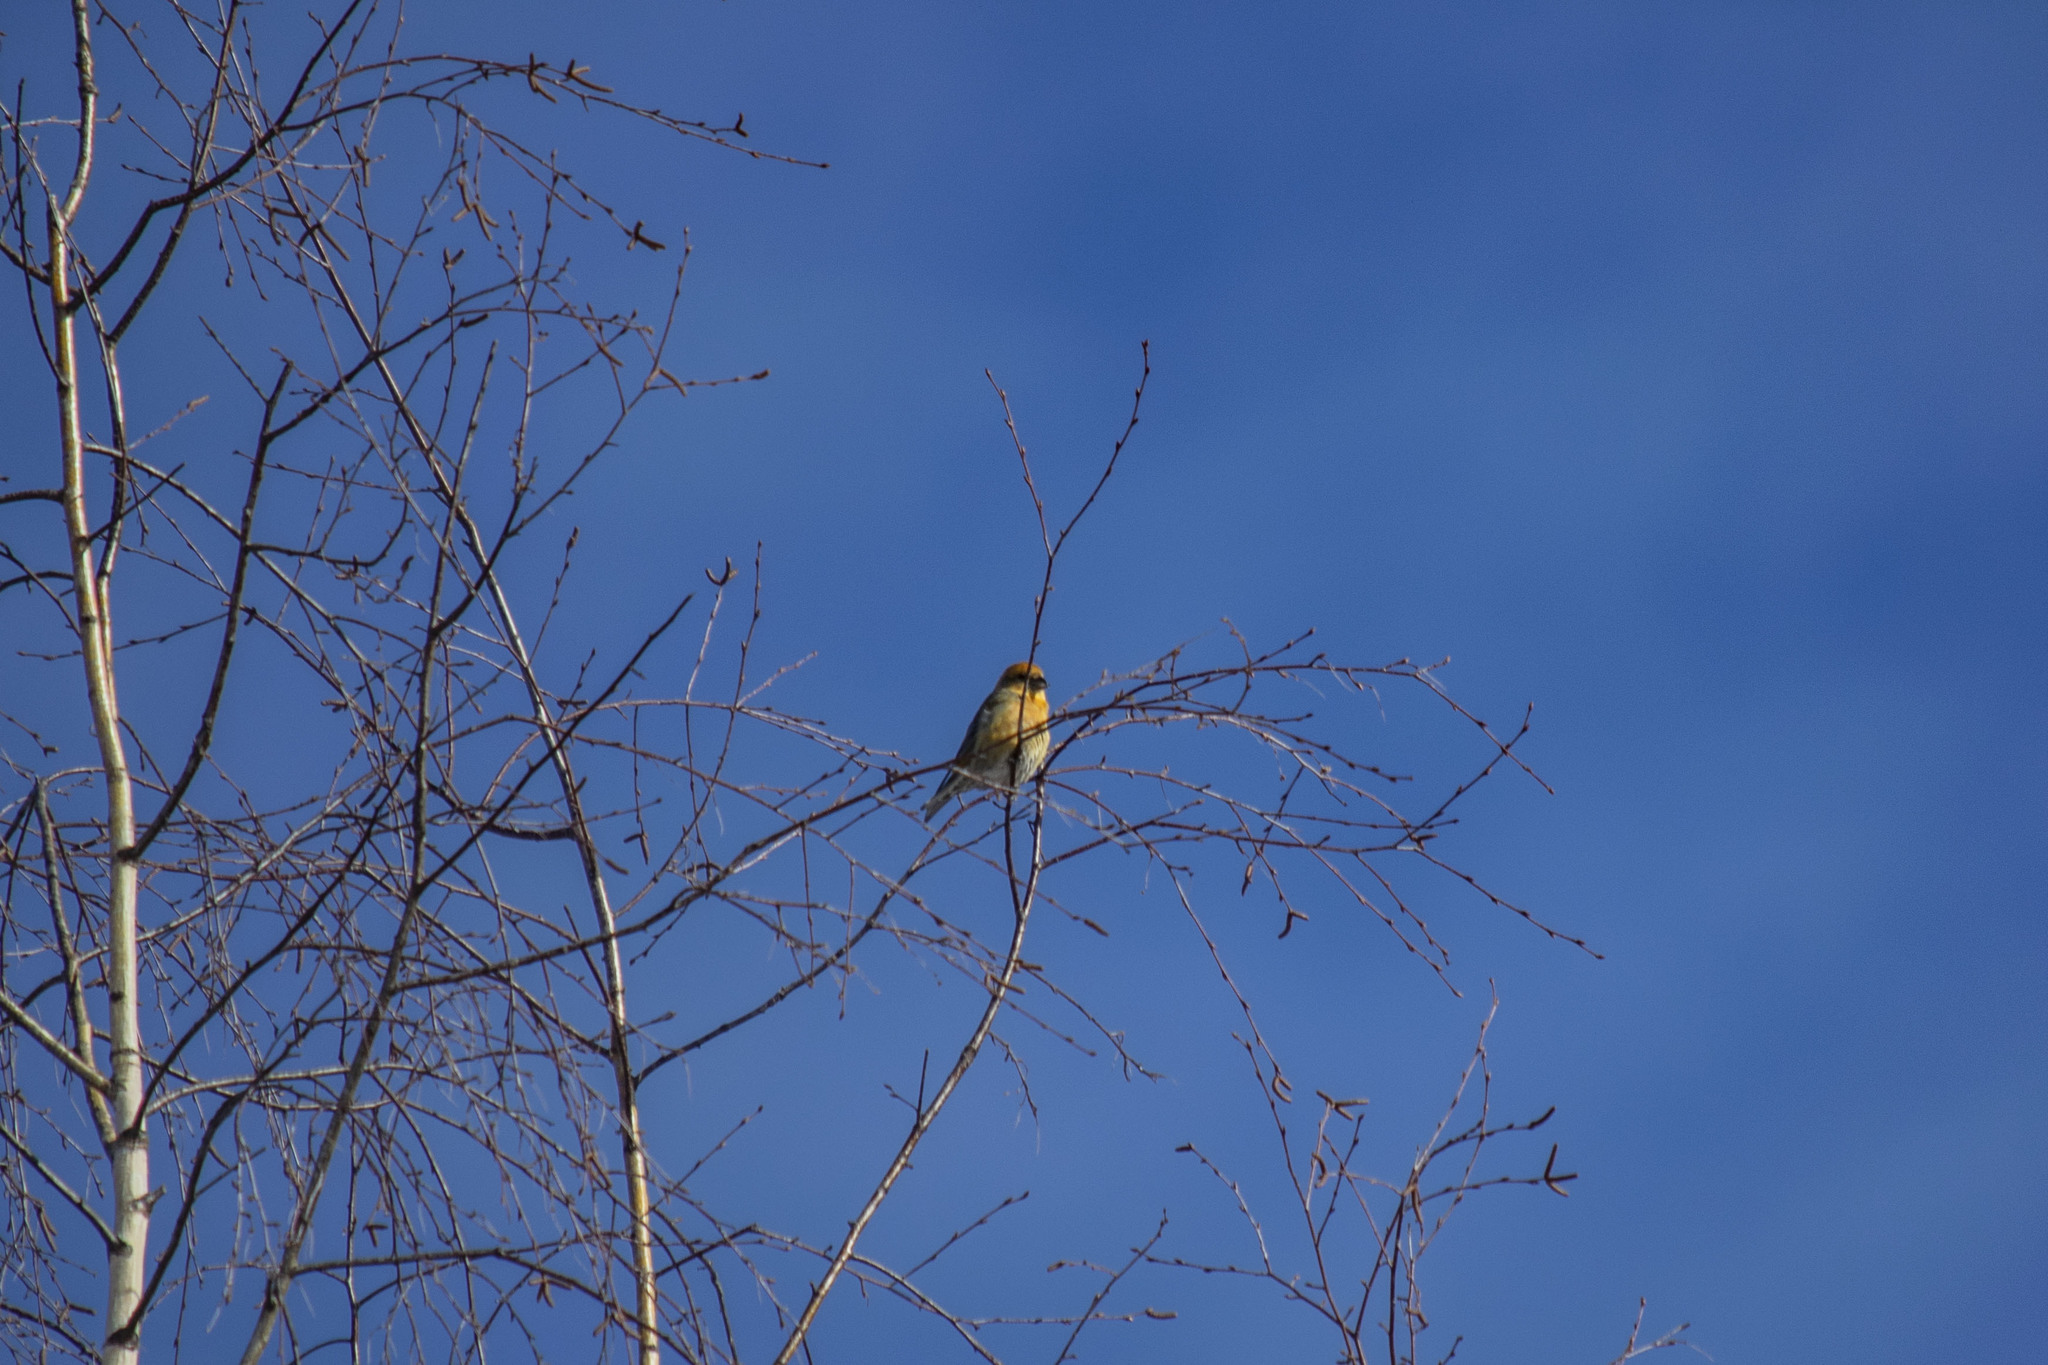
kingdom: Animalia
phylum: Chordata
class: Aves
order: Passeriformes
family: Fringillidae
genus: Loxia
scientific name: Loxia curvirostra
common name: Red crossbill
